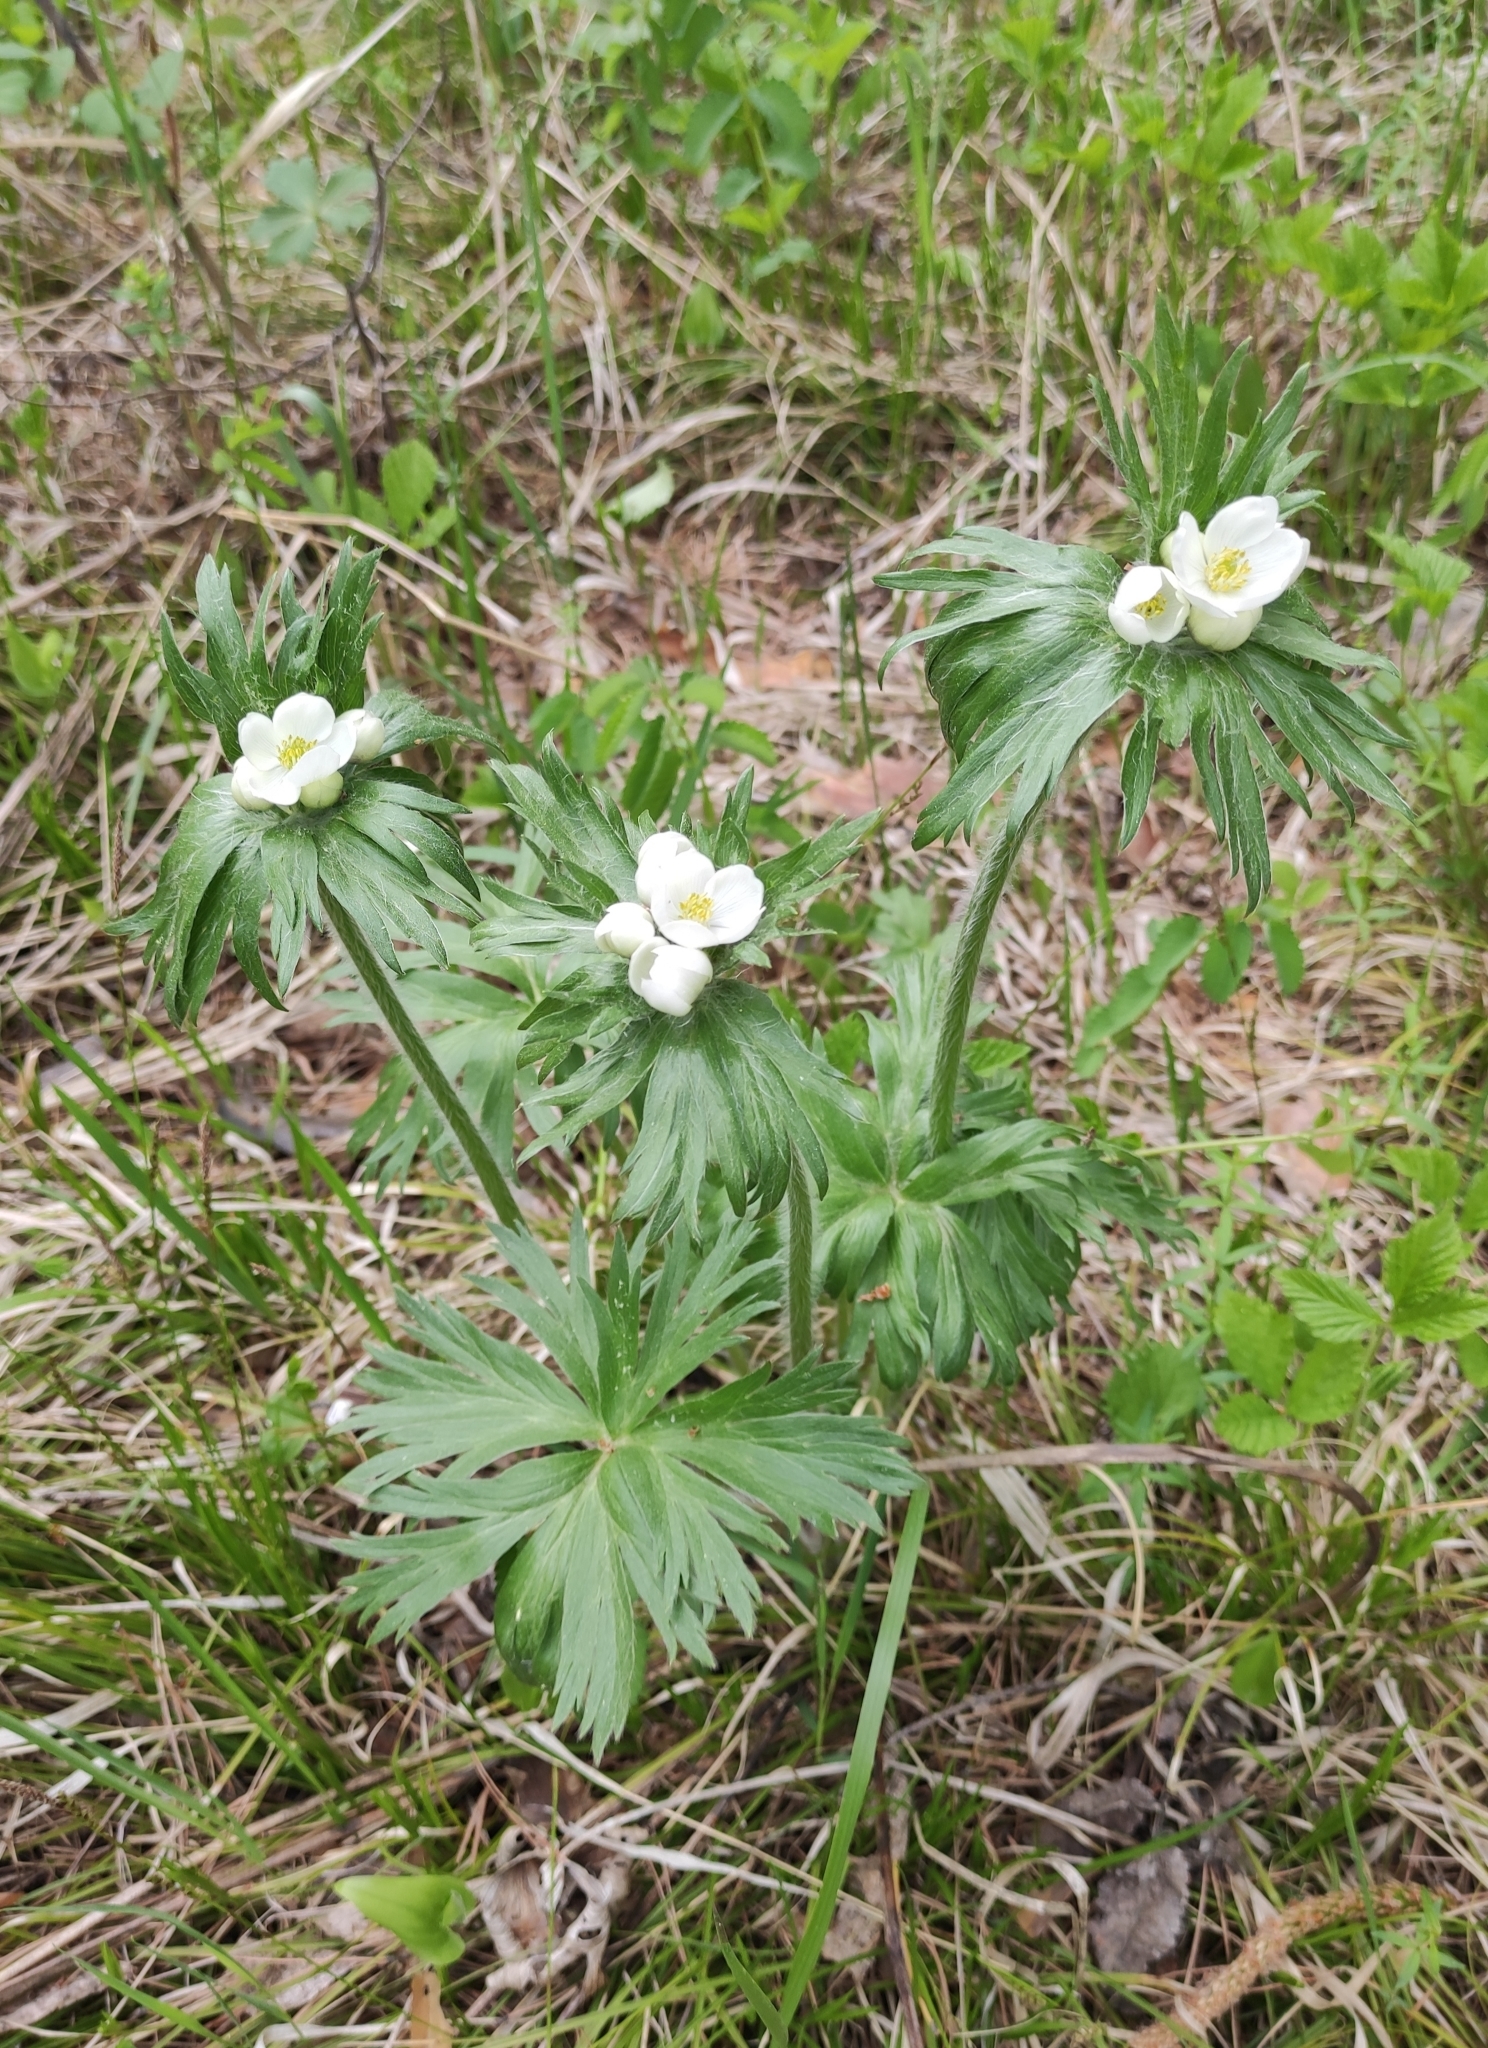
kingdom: Plantae
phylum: Tracheophyta
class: Magnoliopsida
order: Ranunculales
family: Ranunculaceae
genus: Anemonastrum
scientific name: Anemonastrum narcissiflorum
